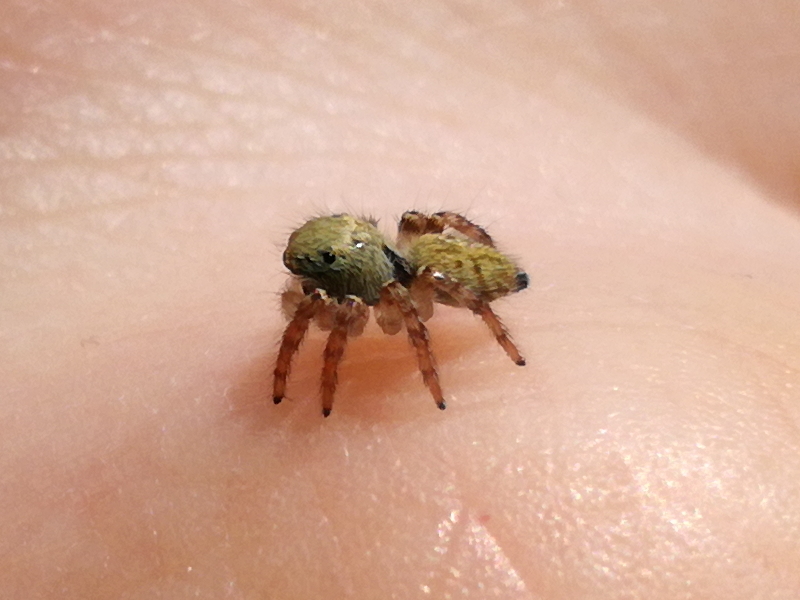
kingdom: Animalia
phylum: Arthropoda
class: Arachnida
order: Araneae
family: Salticidae
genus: Carrhotus
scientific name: Carrhotus xanthogramma
